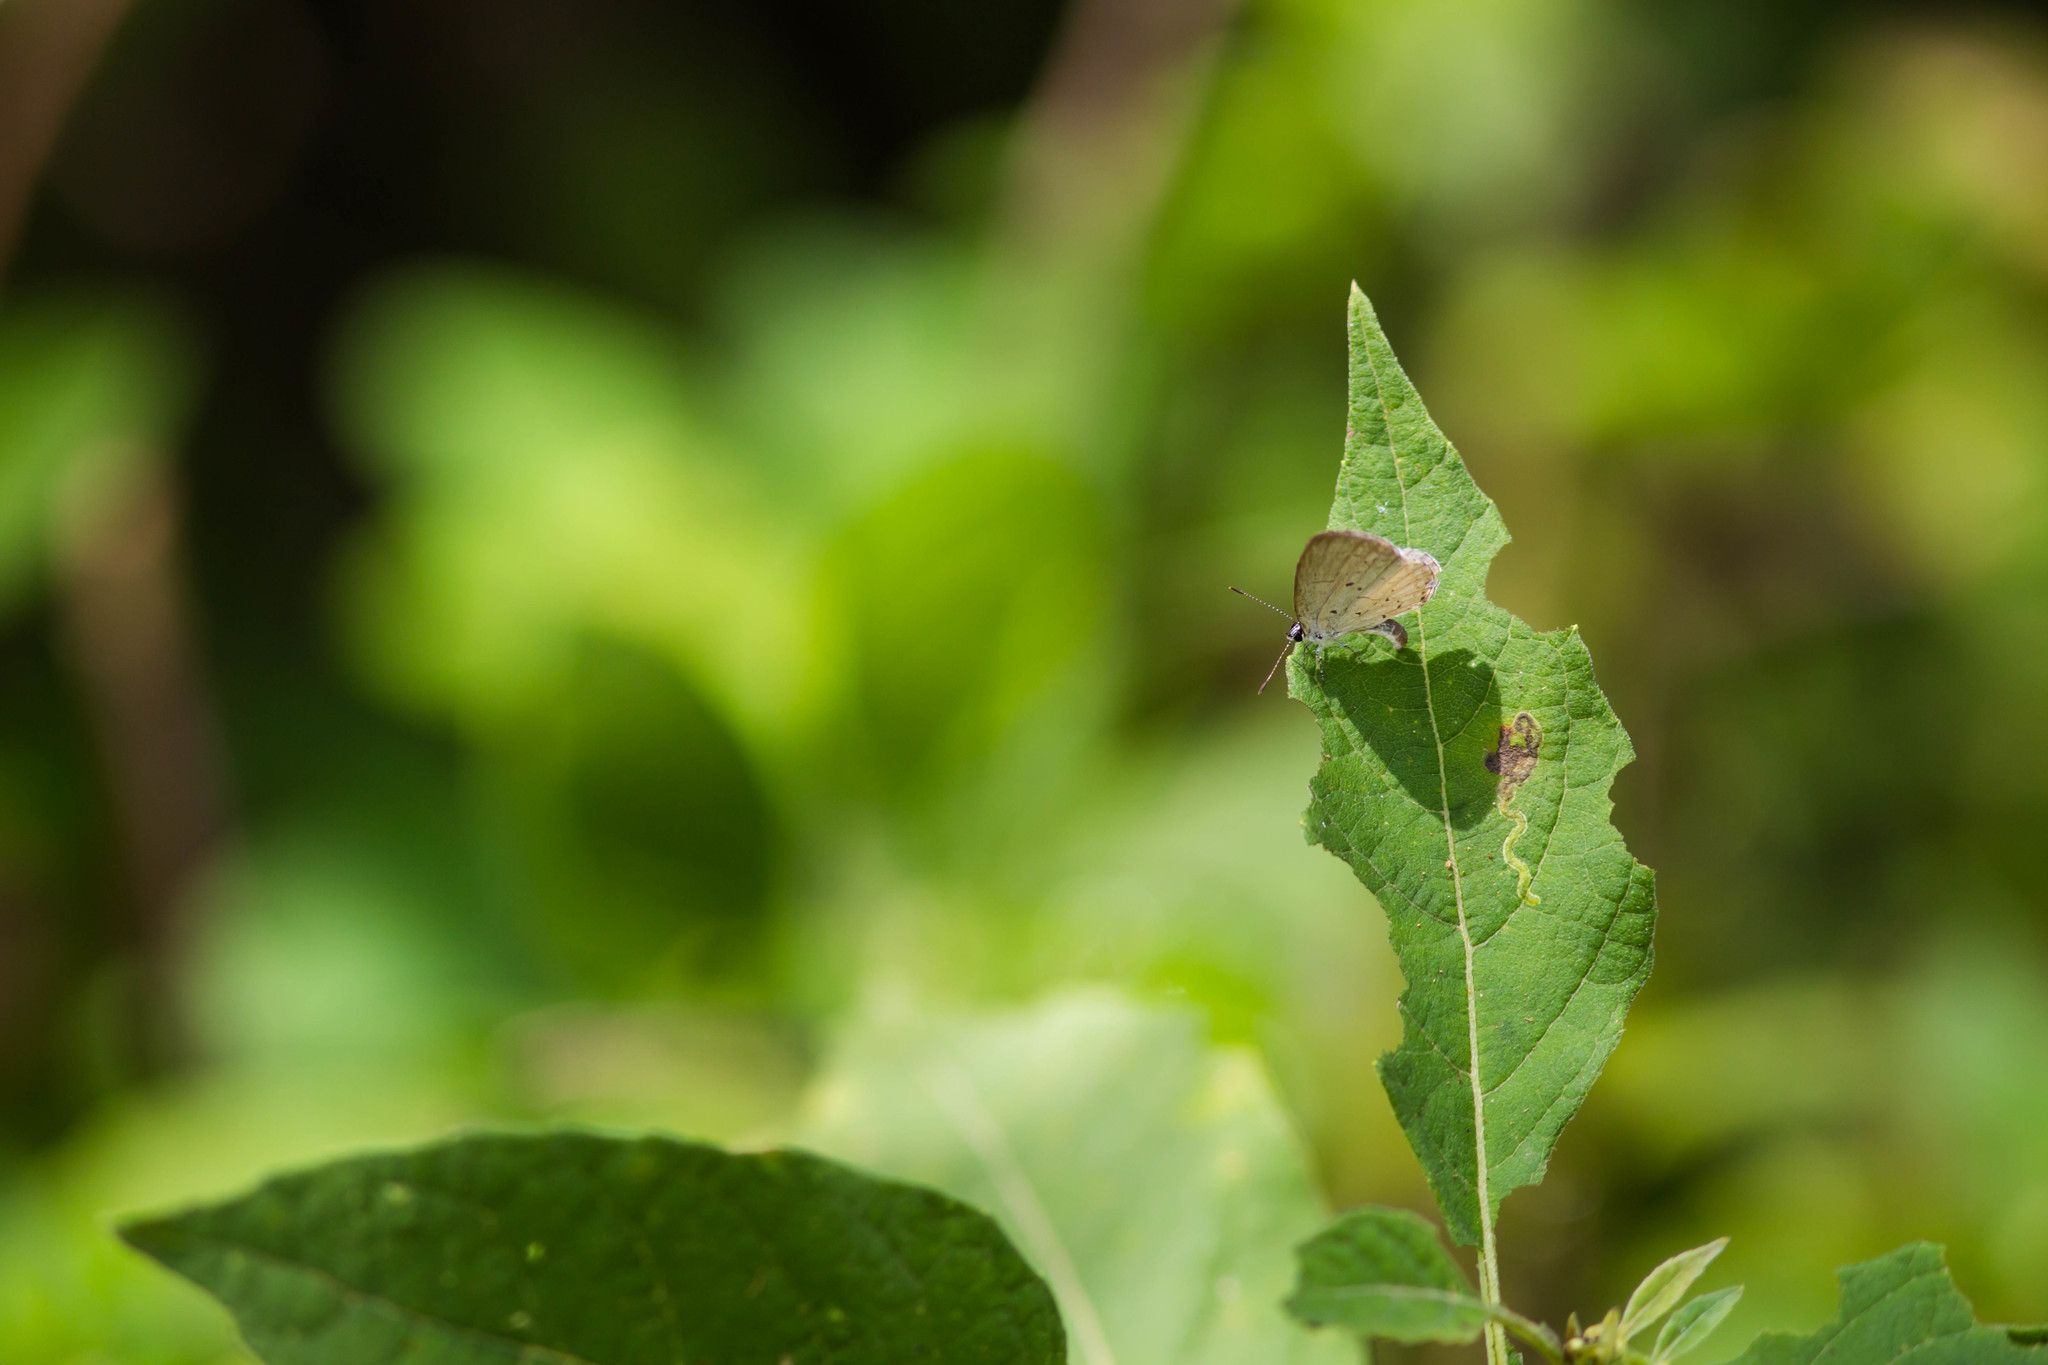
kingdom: Animalia
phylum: Arthropoda
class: Insecta
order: Lepidoptera
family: Lycaenidae
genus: Cyaniris
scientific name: Cyaniris neglecta
